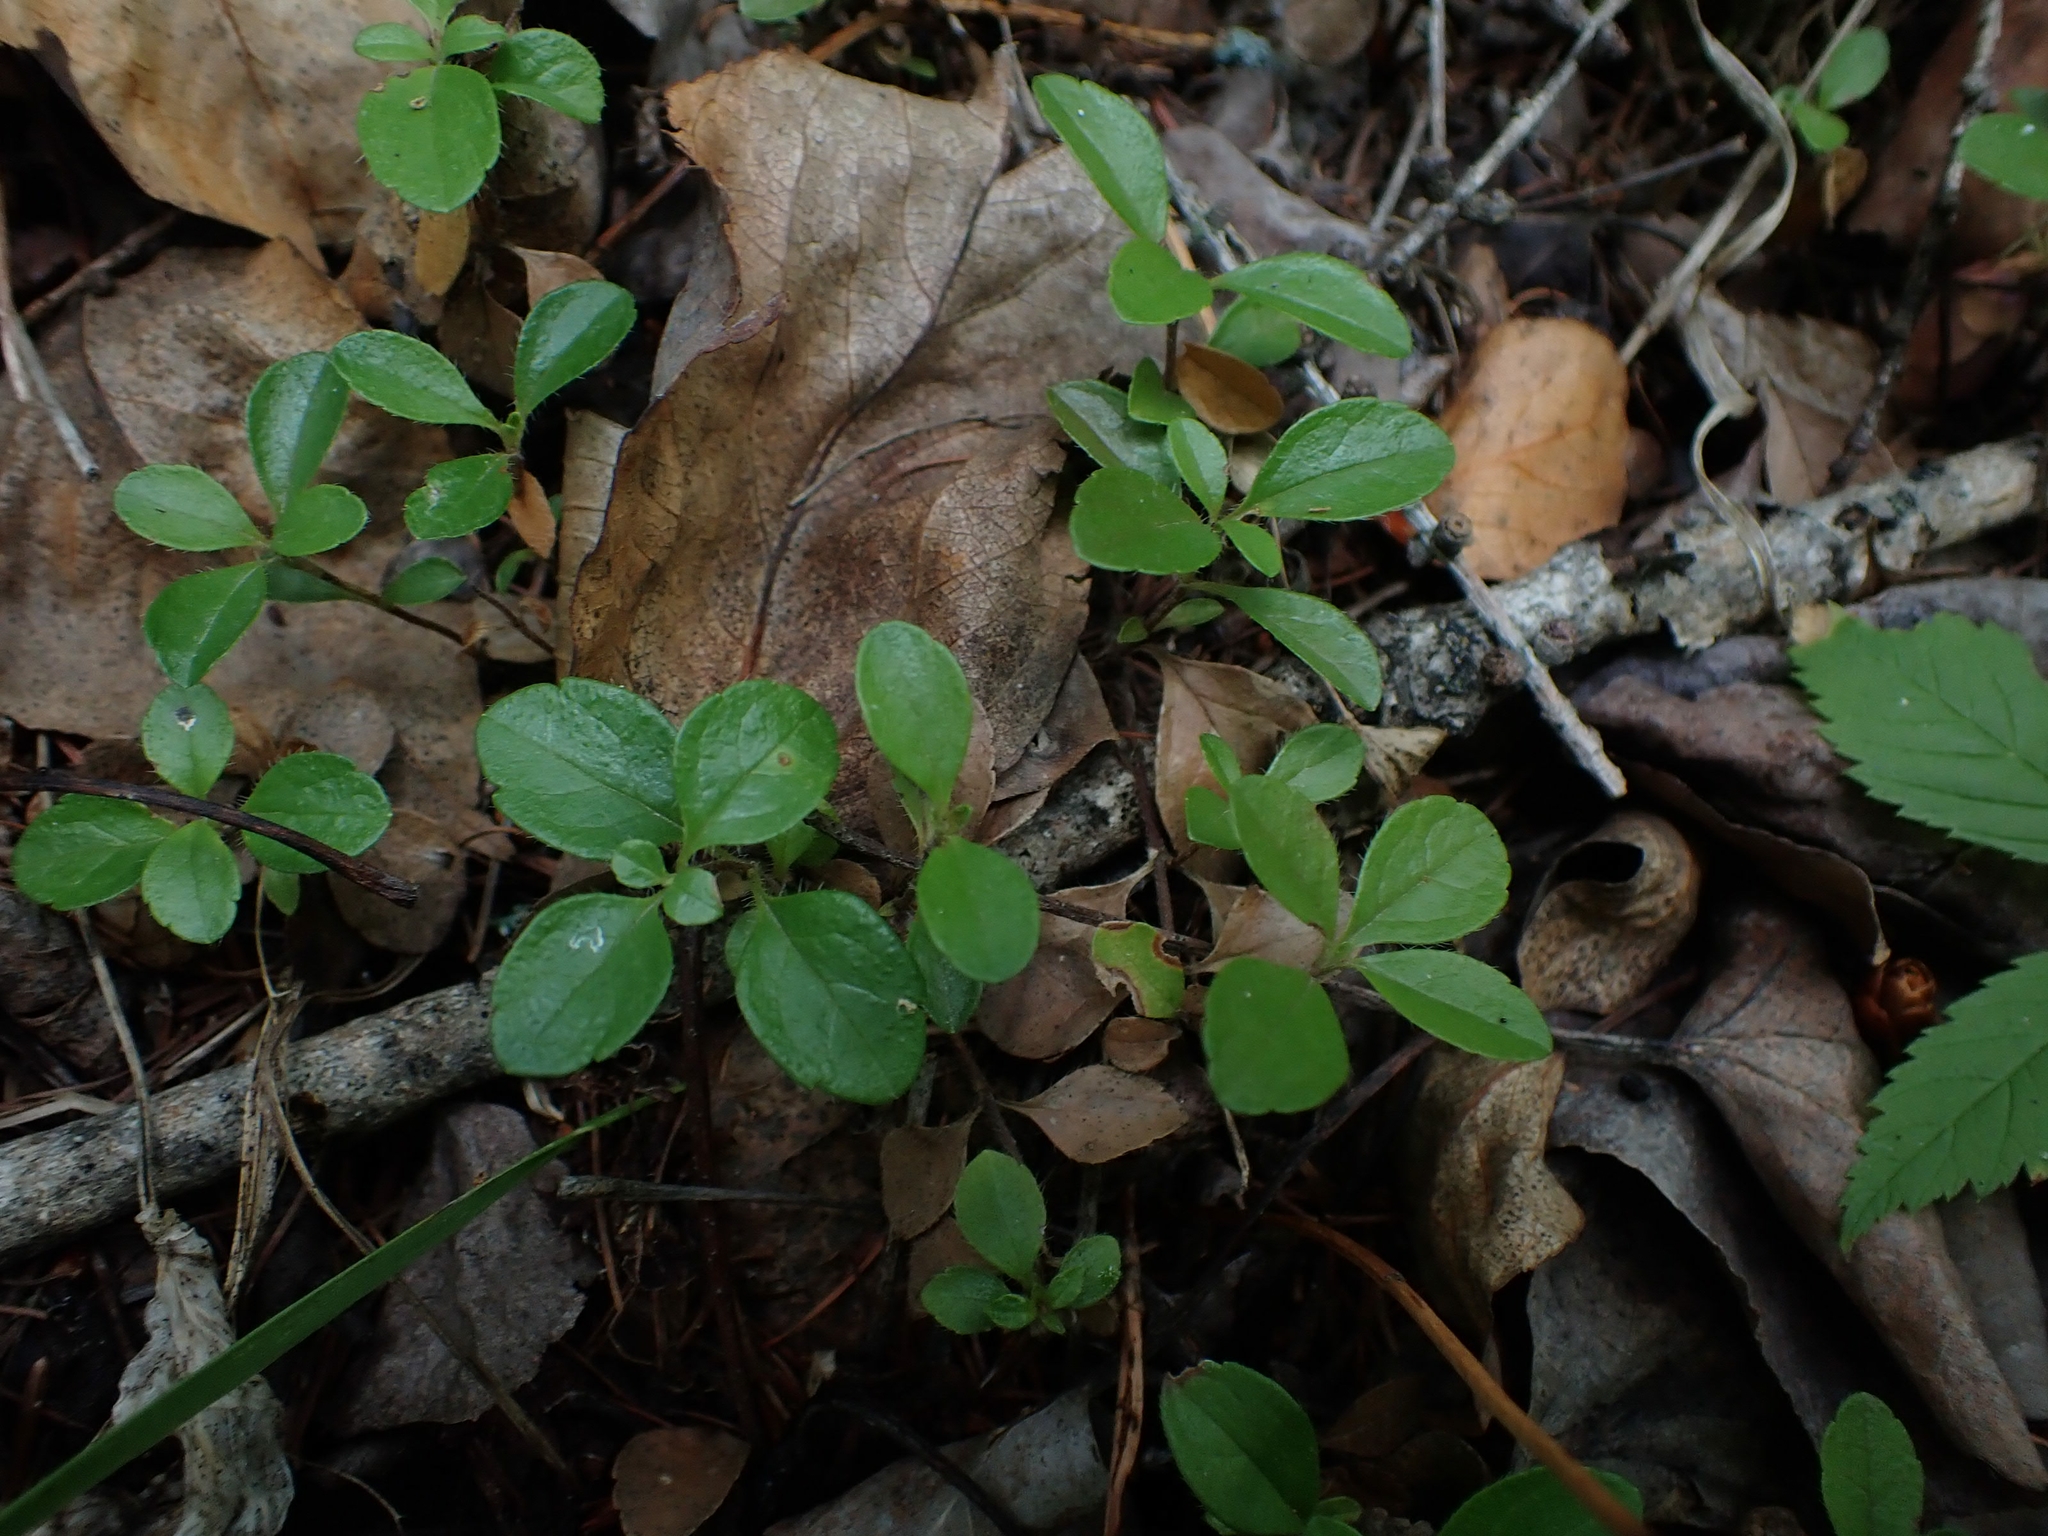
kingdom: Plantae
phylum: Tracheophyta
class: Magnoliopsida
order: Dipsacales
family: Caprifoliaceae
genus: Linnaea
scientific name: Linnaea borealis
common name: Twinflower
